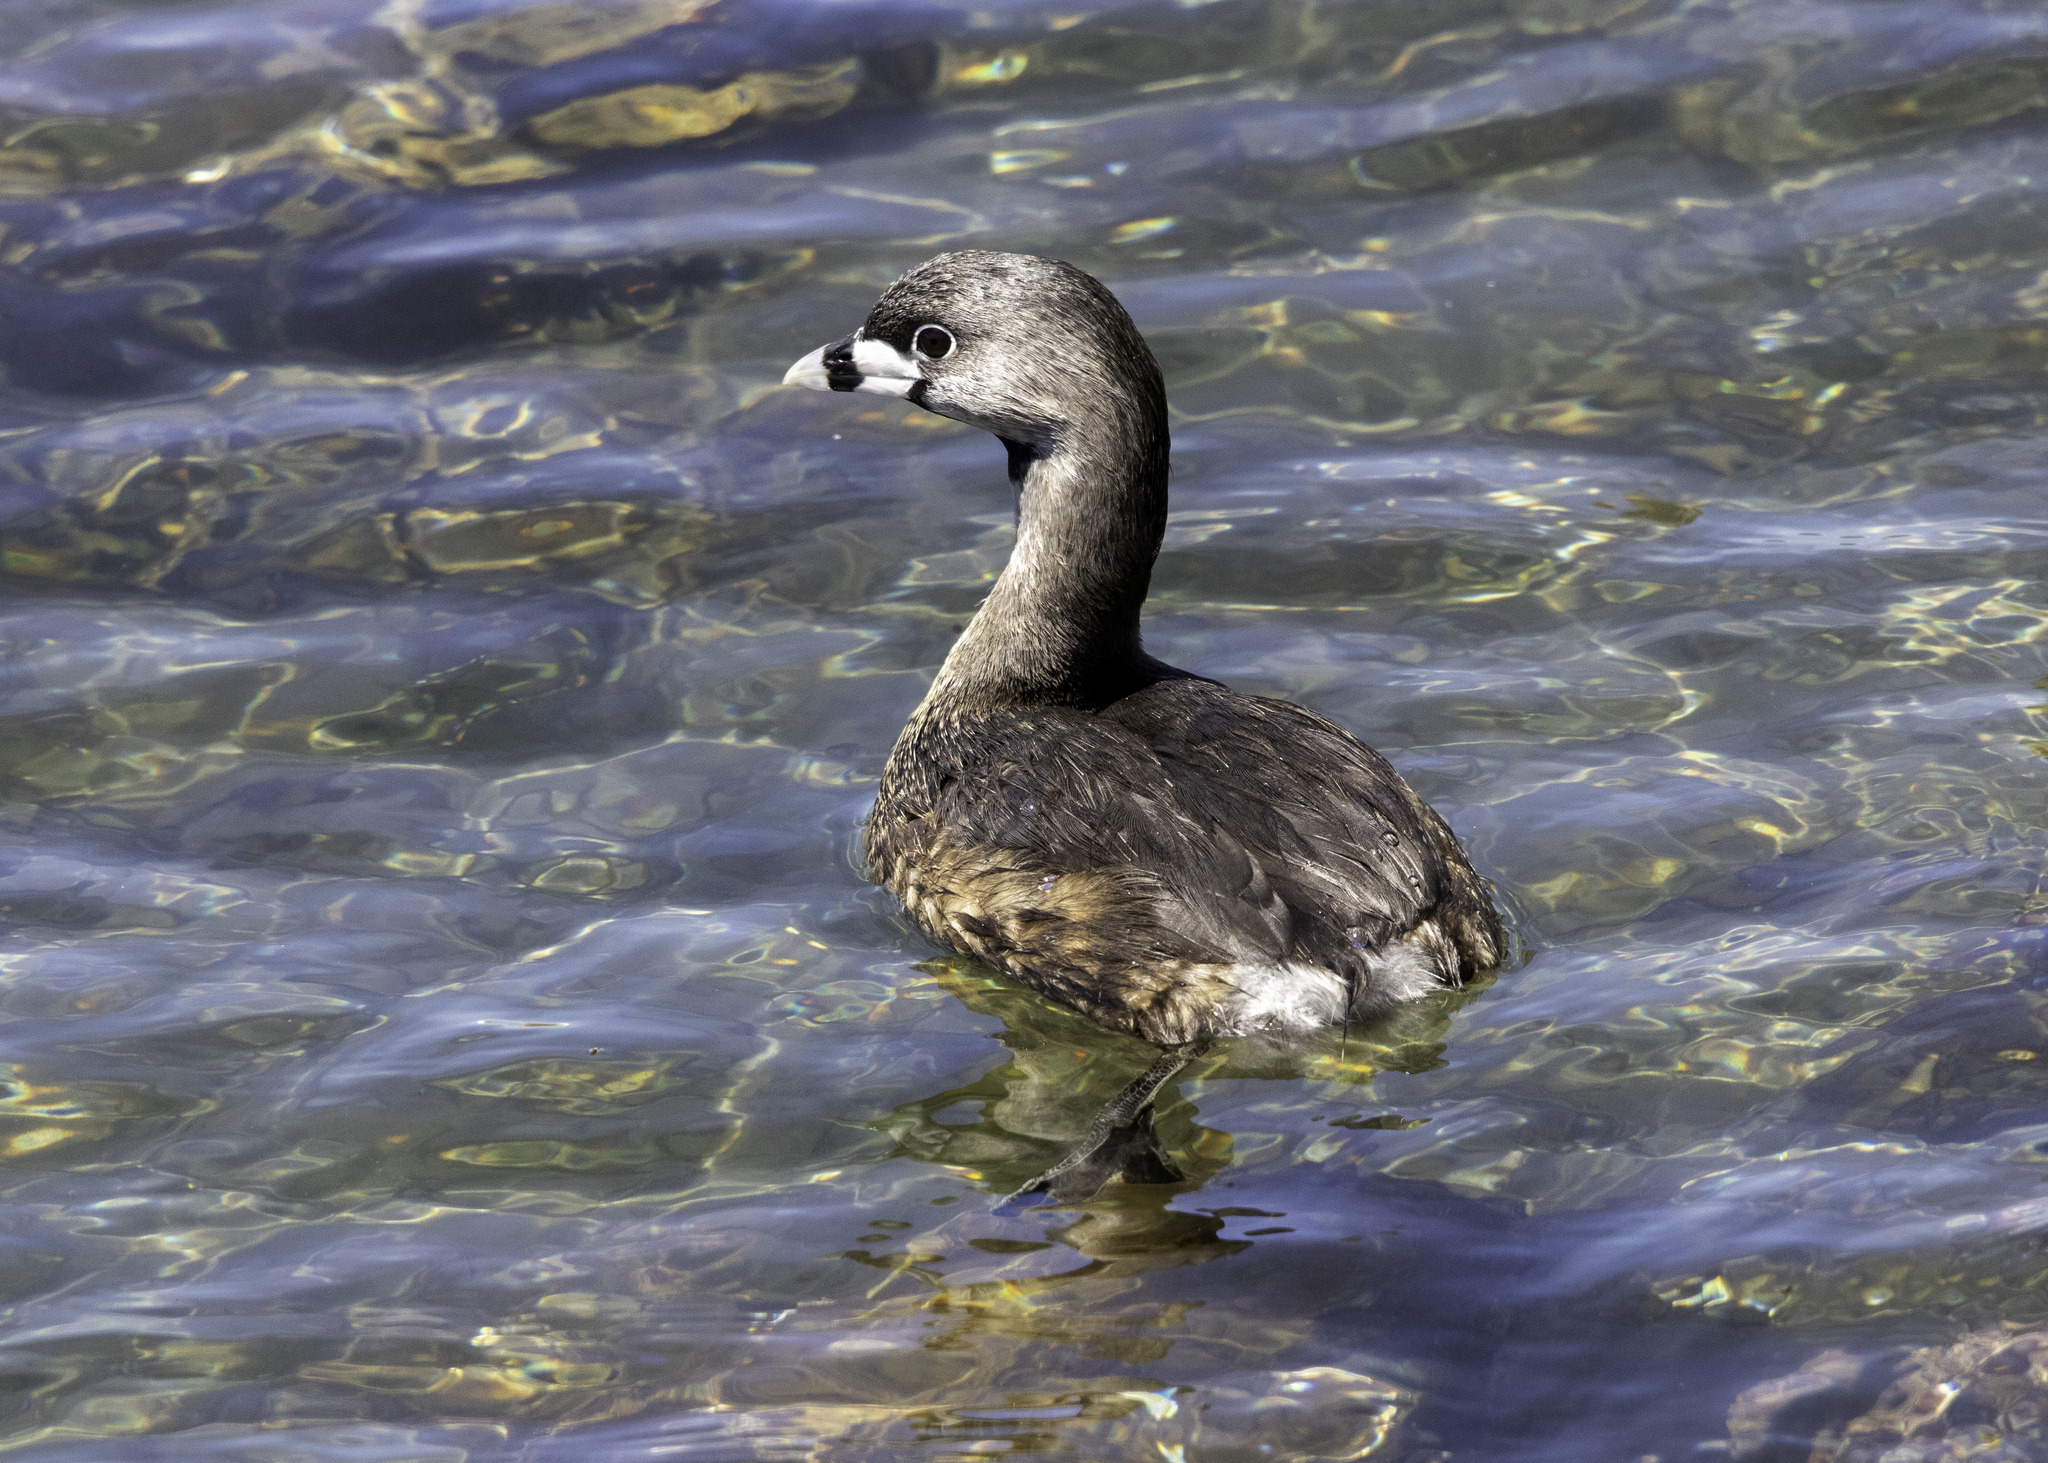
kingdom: Animalia
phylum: Chordata
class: Aves
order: Podicipediformes
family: Podicipedidae
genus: Podilymbus
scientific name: Podilymbus podiceps
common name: Pied-billed grebe
